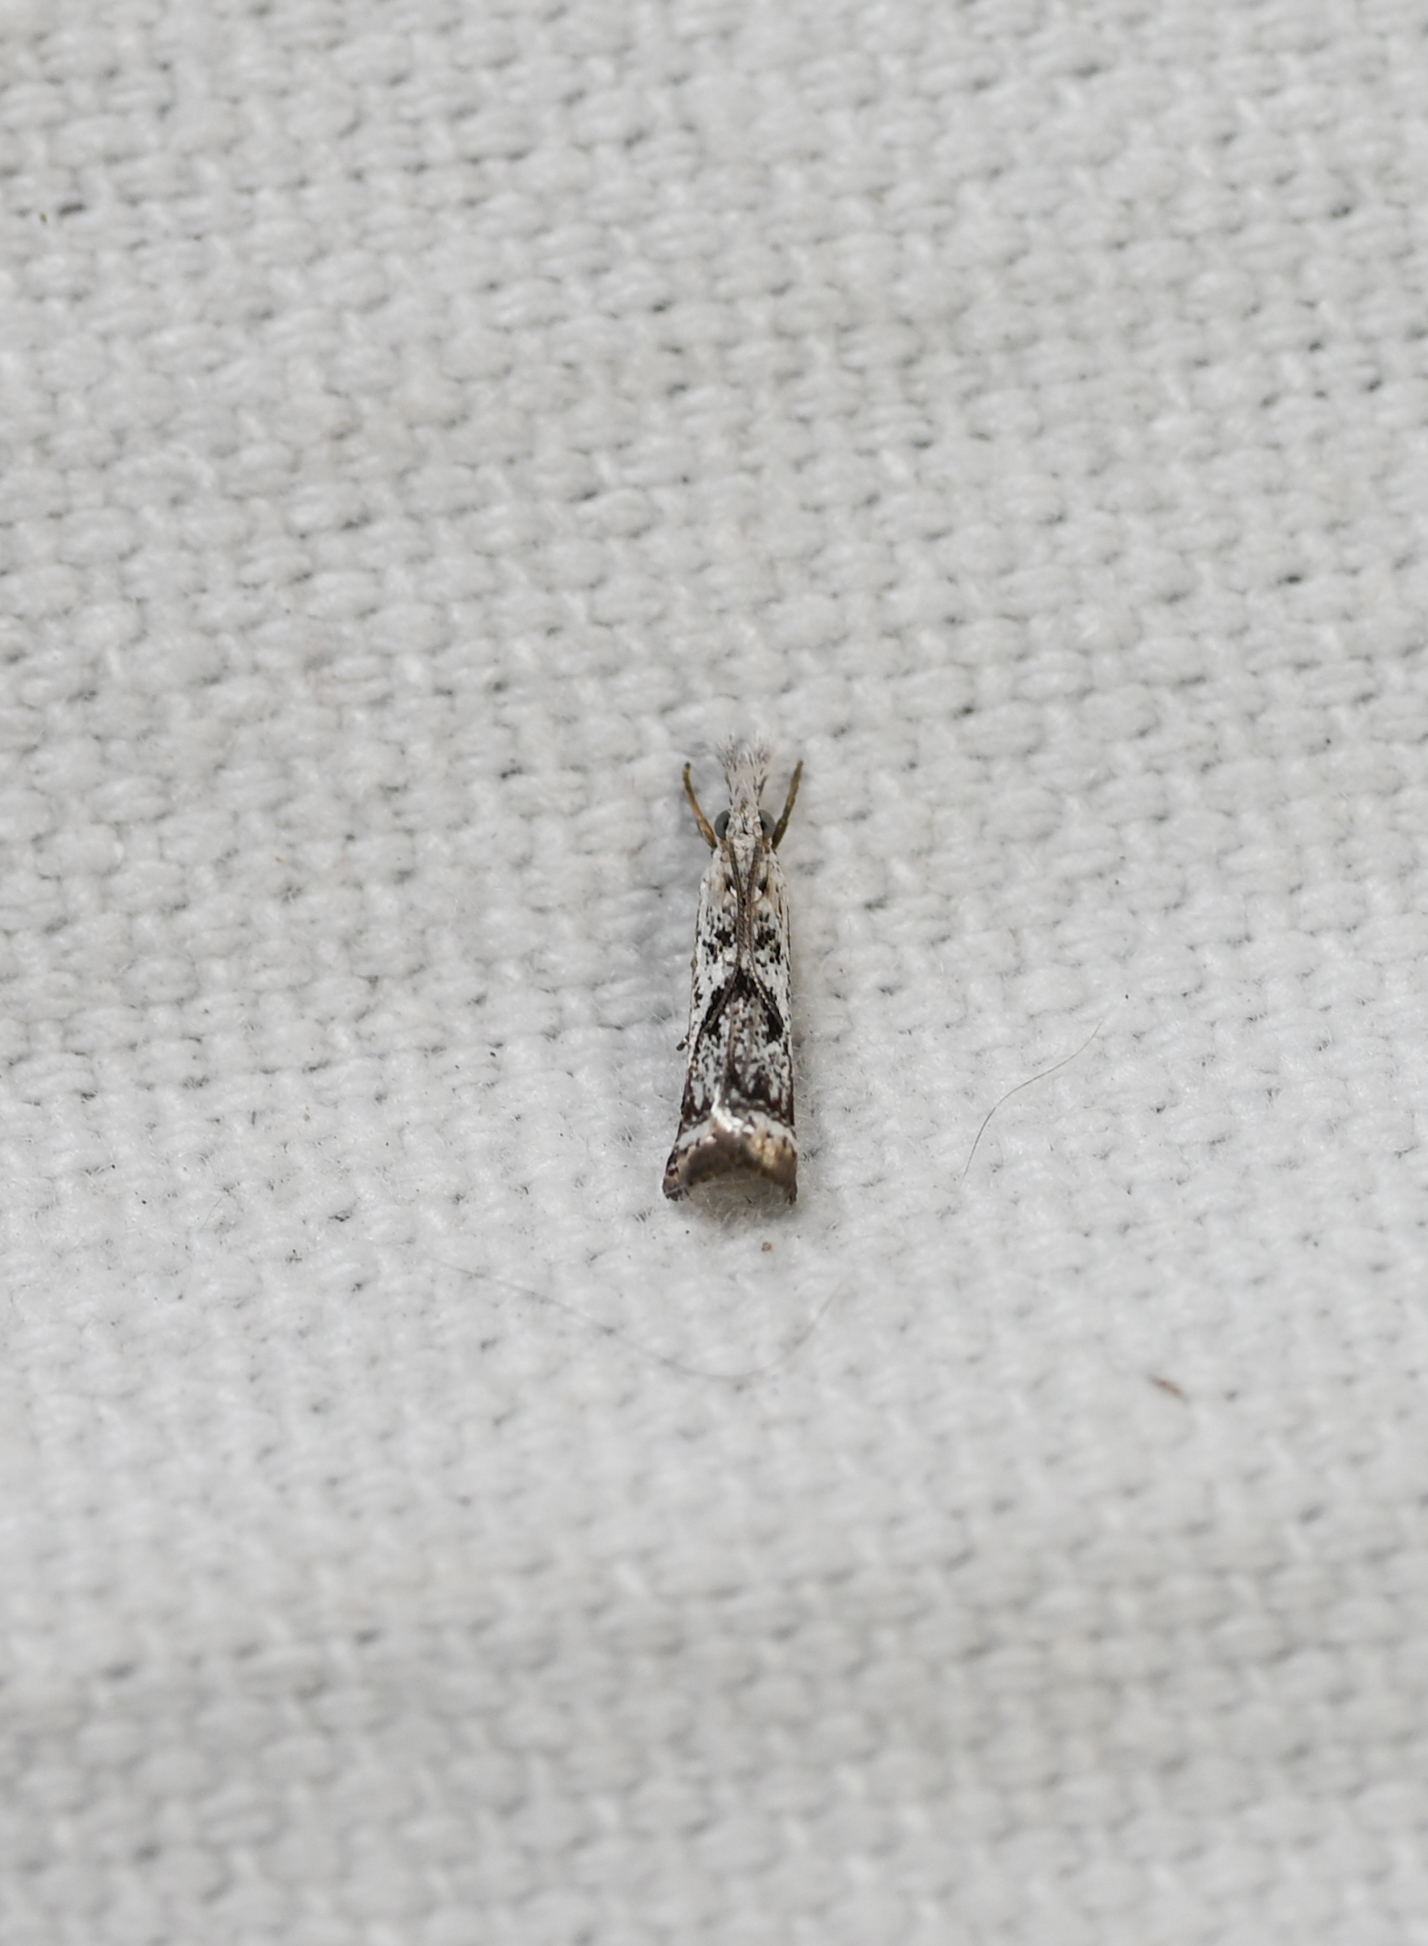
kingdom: Animalia
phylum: Arthropoda
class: Insecta
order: Lepidoptera
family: Crambidae
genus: Microcrambus
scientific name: Microcrambus elegans
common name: Elegant grass-veneer
